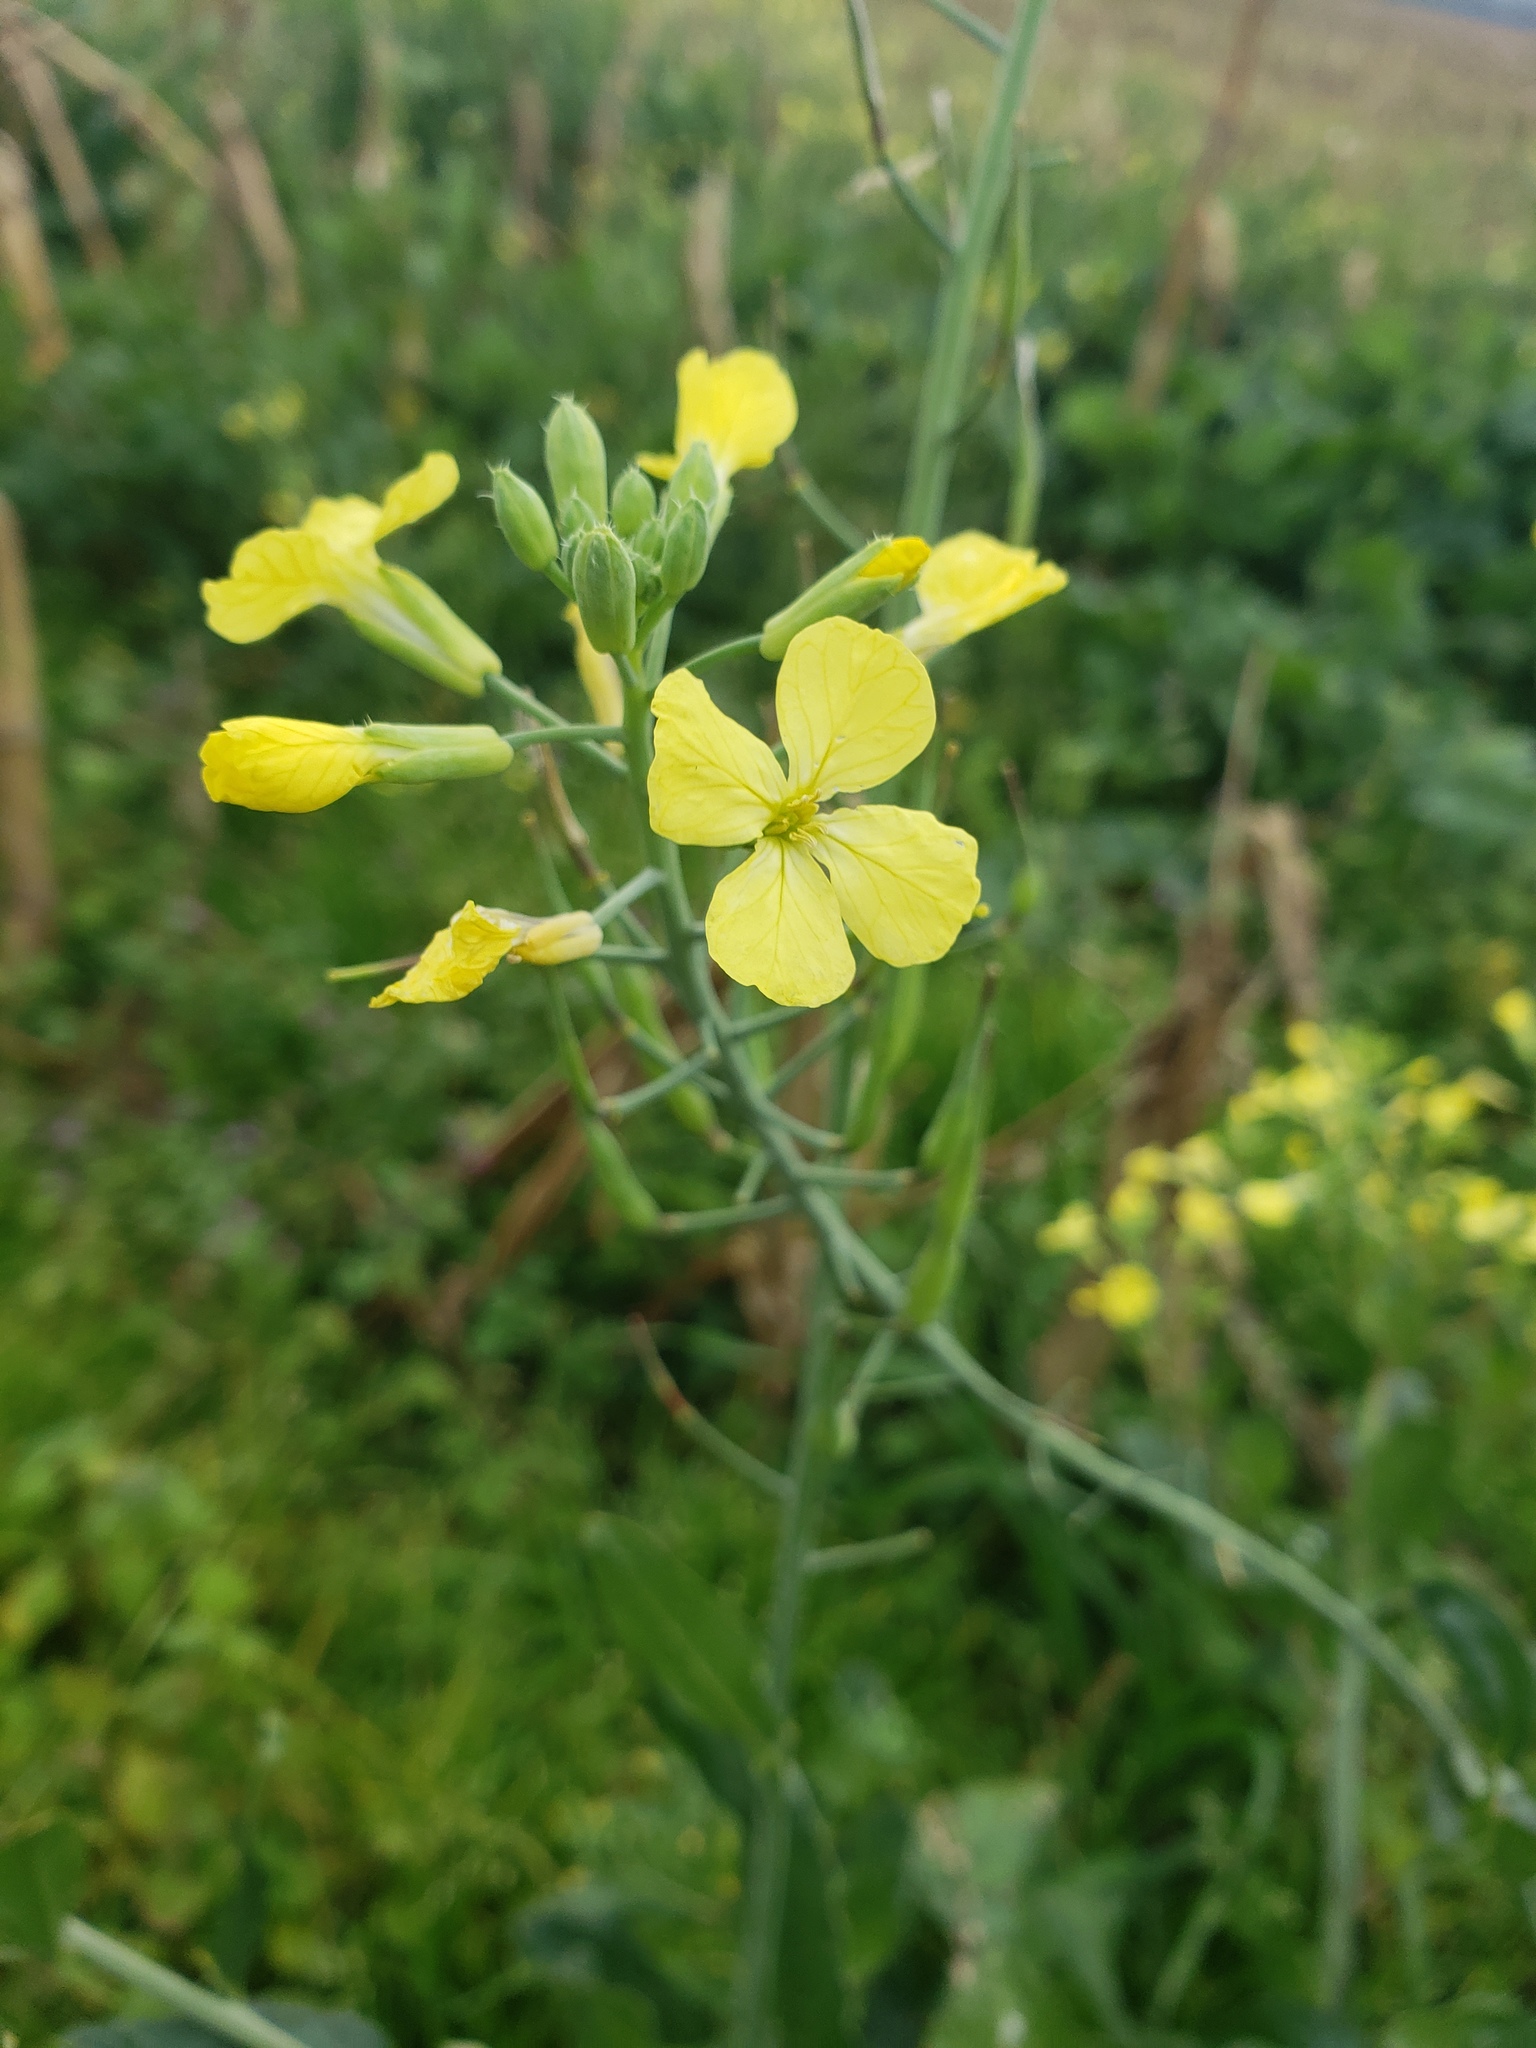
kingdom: Plantae
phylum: Tracheophyta
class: Magnoliopsida
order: Brassicales
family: Brassicaceae
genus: Raphanus
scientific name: Raphanus raphanistrum
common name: Wild radish
